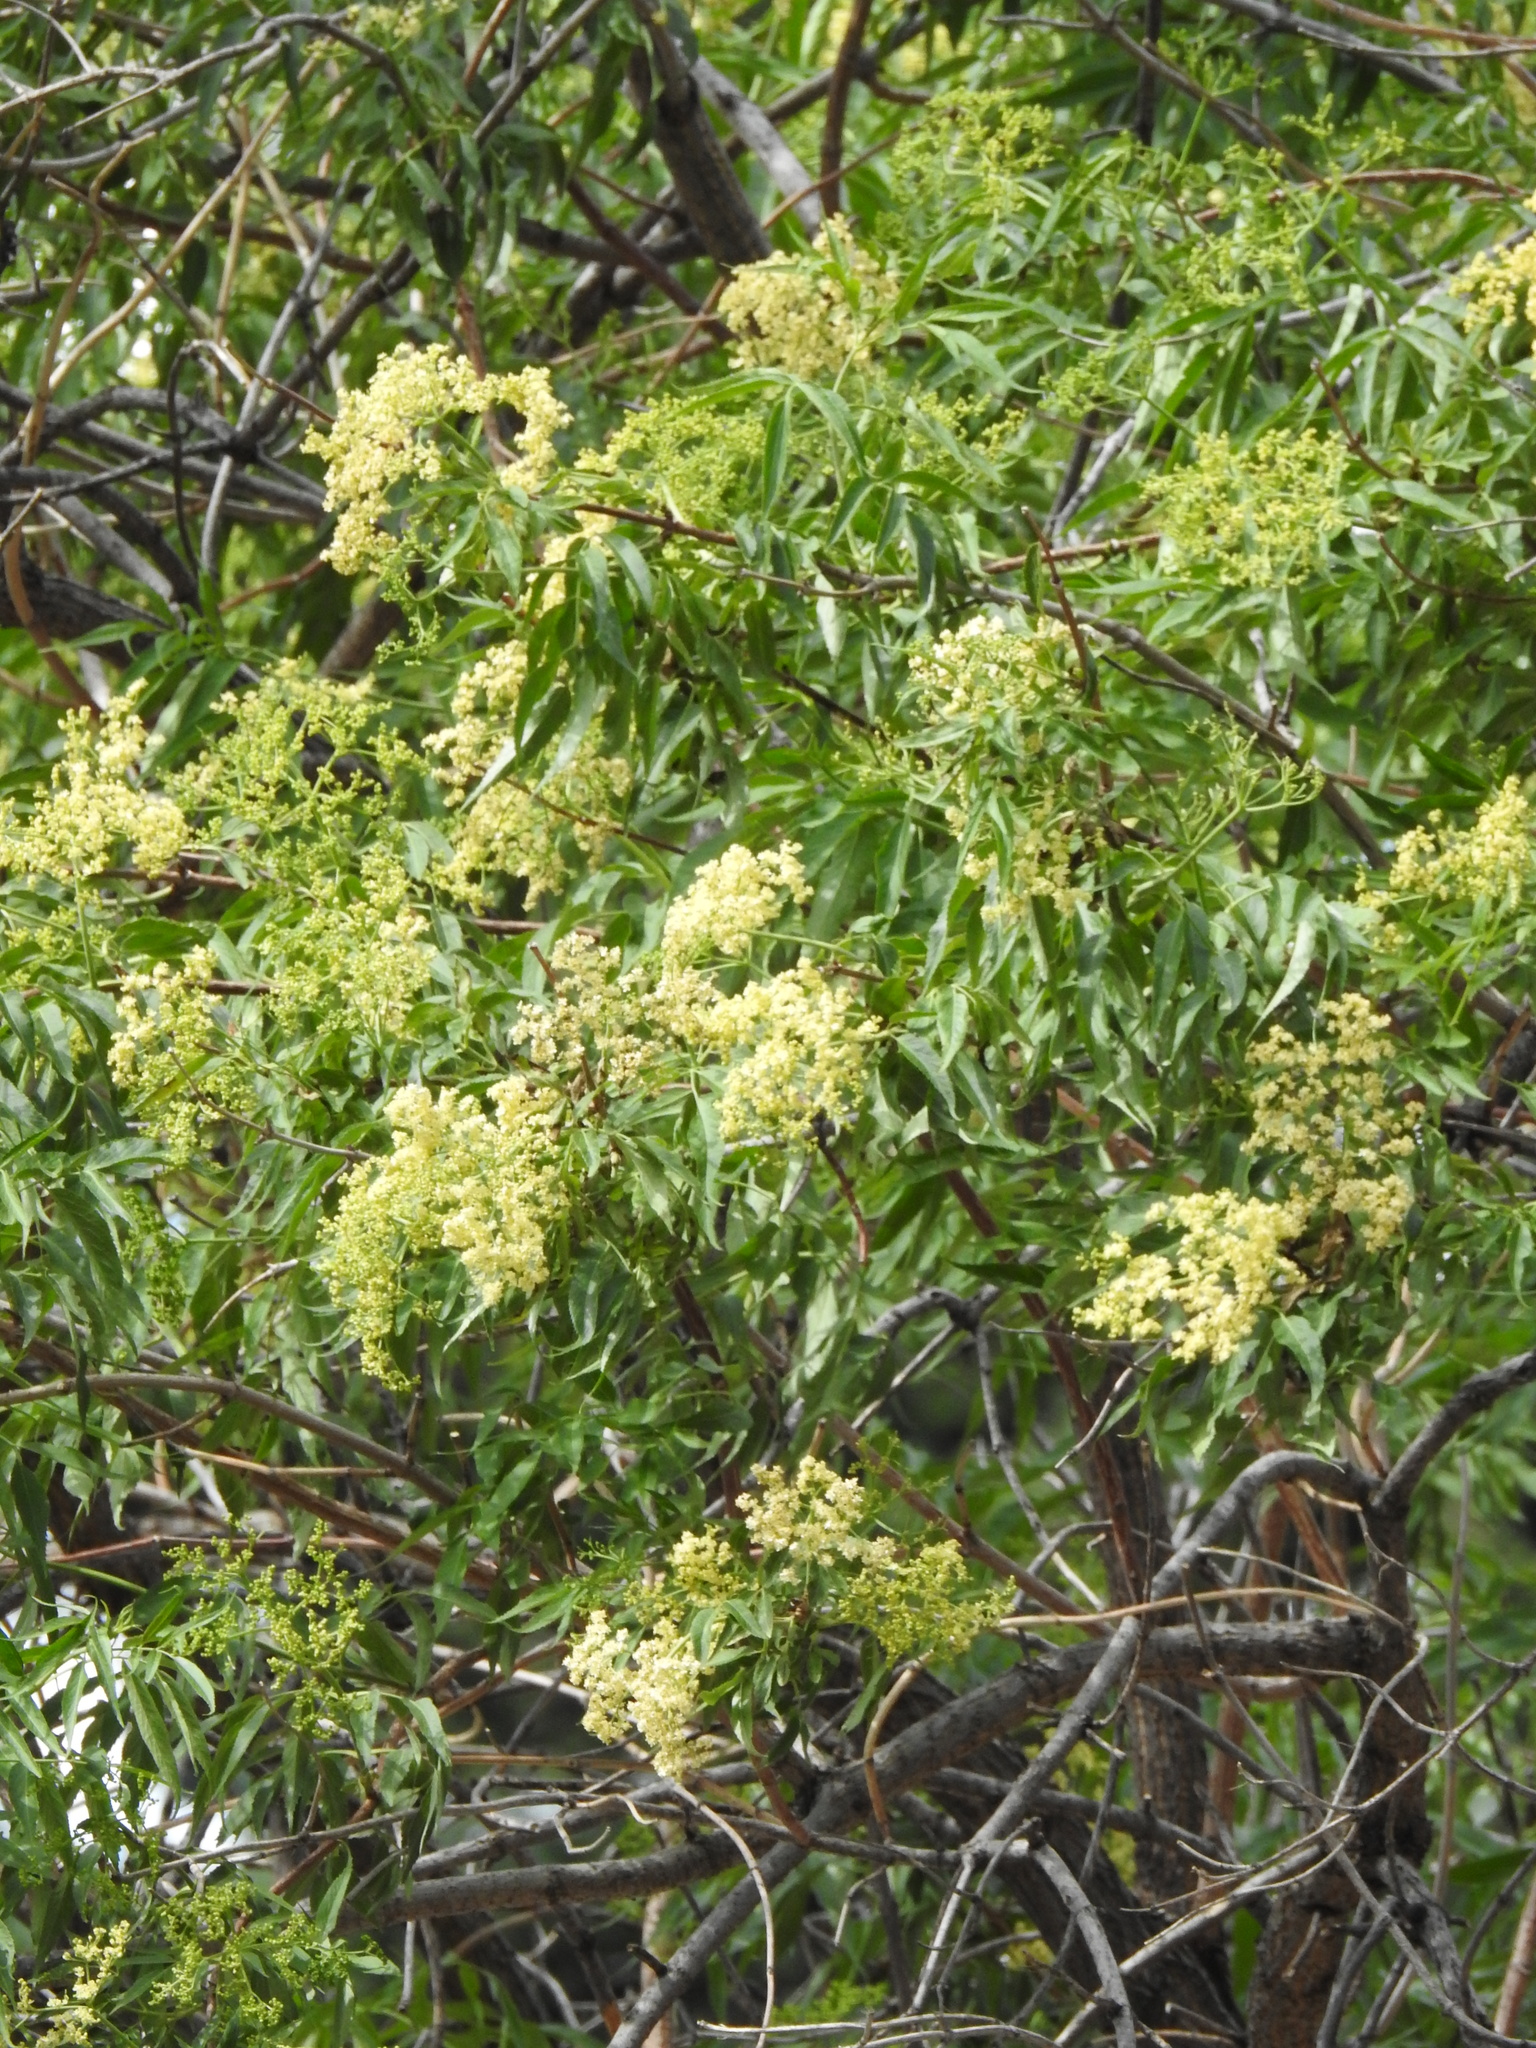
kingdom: Plantae
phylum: Tracheophyta
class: Magnoliopsida
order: Dipsacales
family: Viburnaceae
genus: Sambucus
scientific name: Sambucus cerulea
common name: Blue elder
